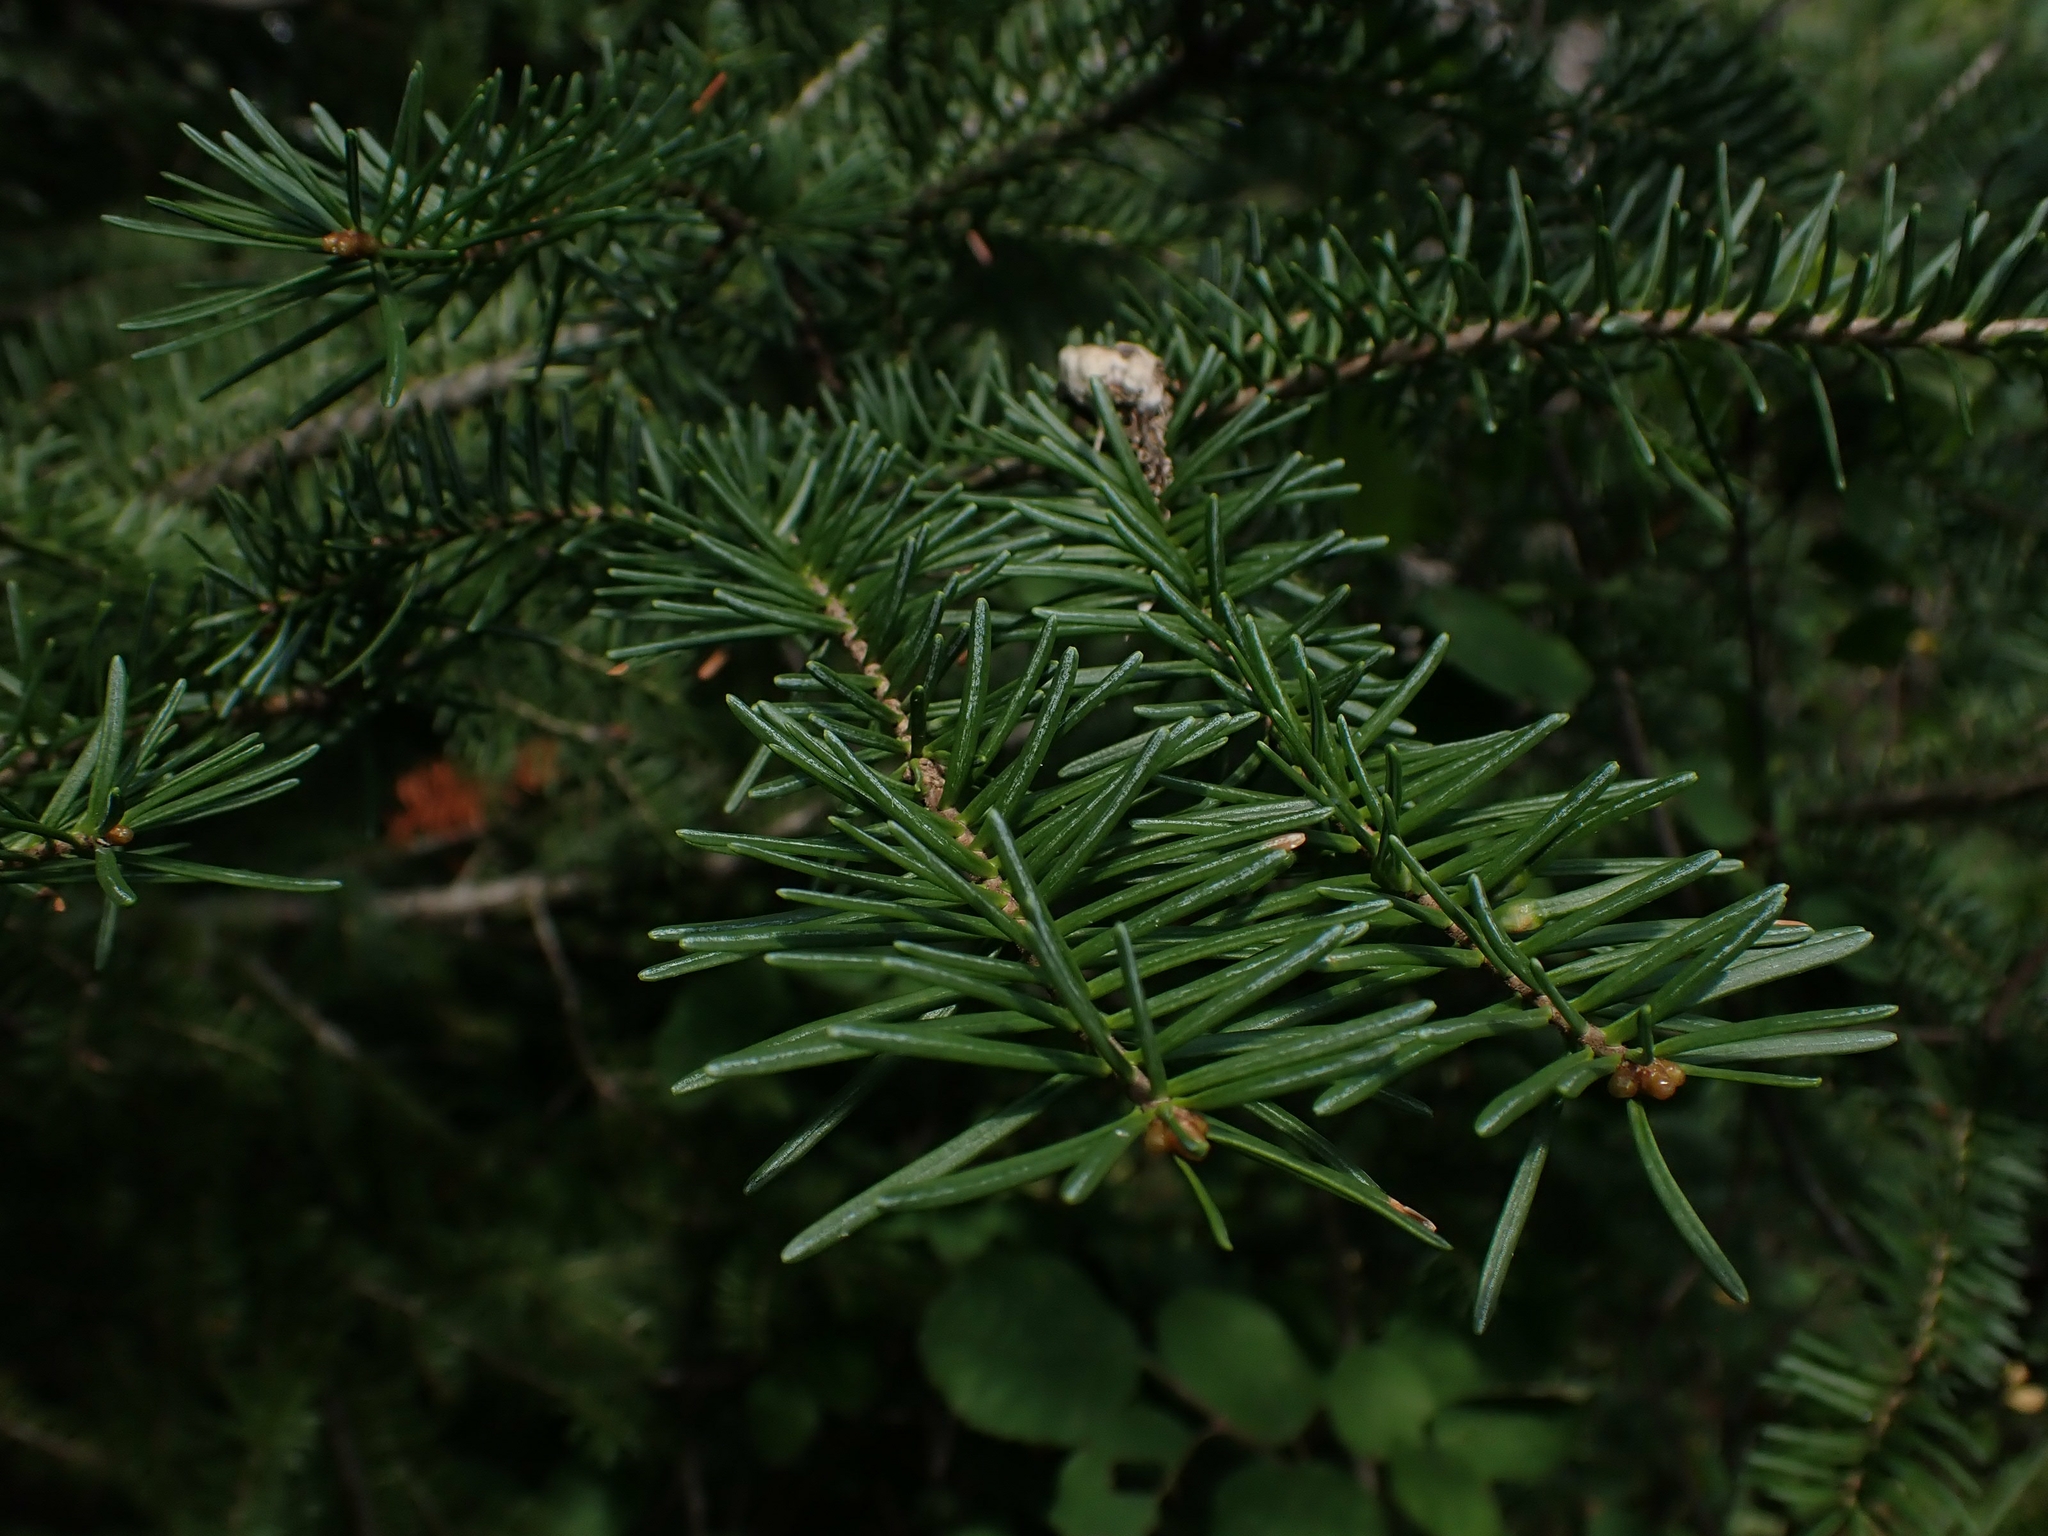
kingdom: Plantae
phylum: Tracheophyta
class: Pinopsida
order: Pinales
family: Pinaceae
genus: Abies
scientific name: Abies balsamea
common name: Balsam fir
